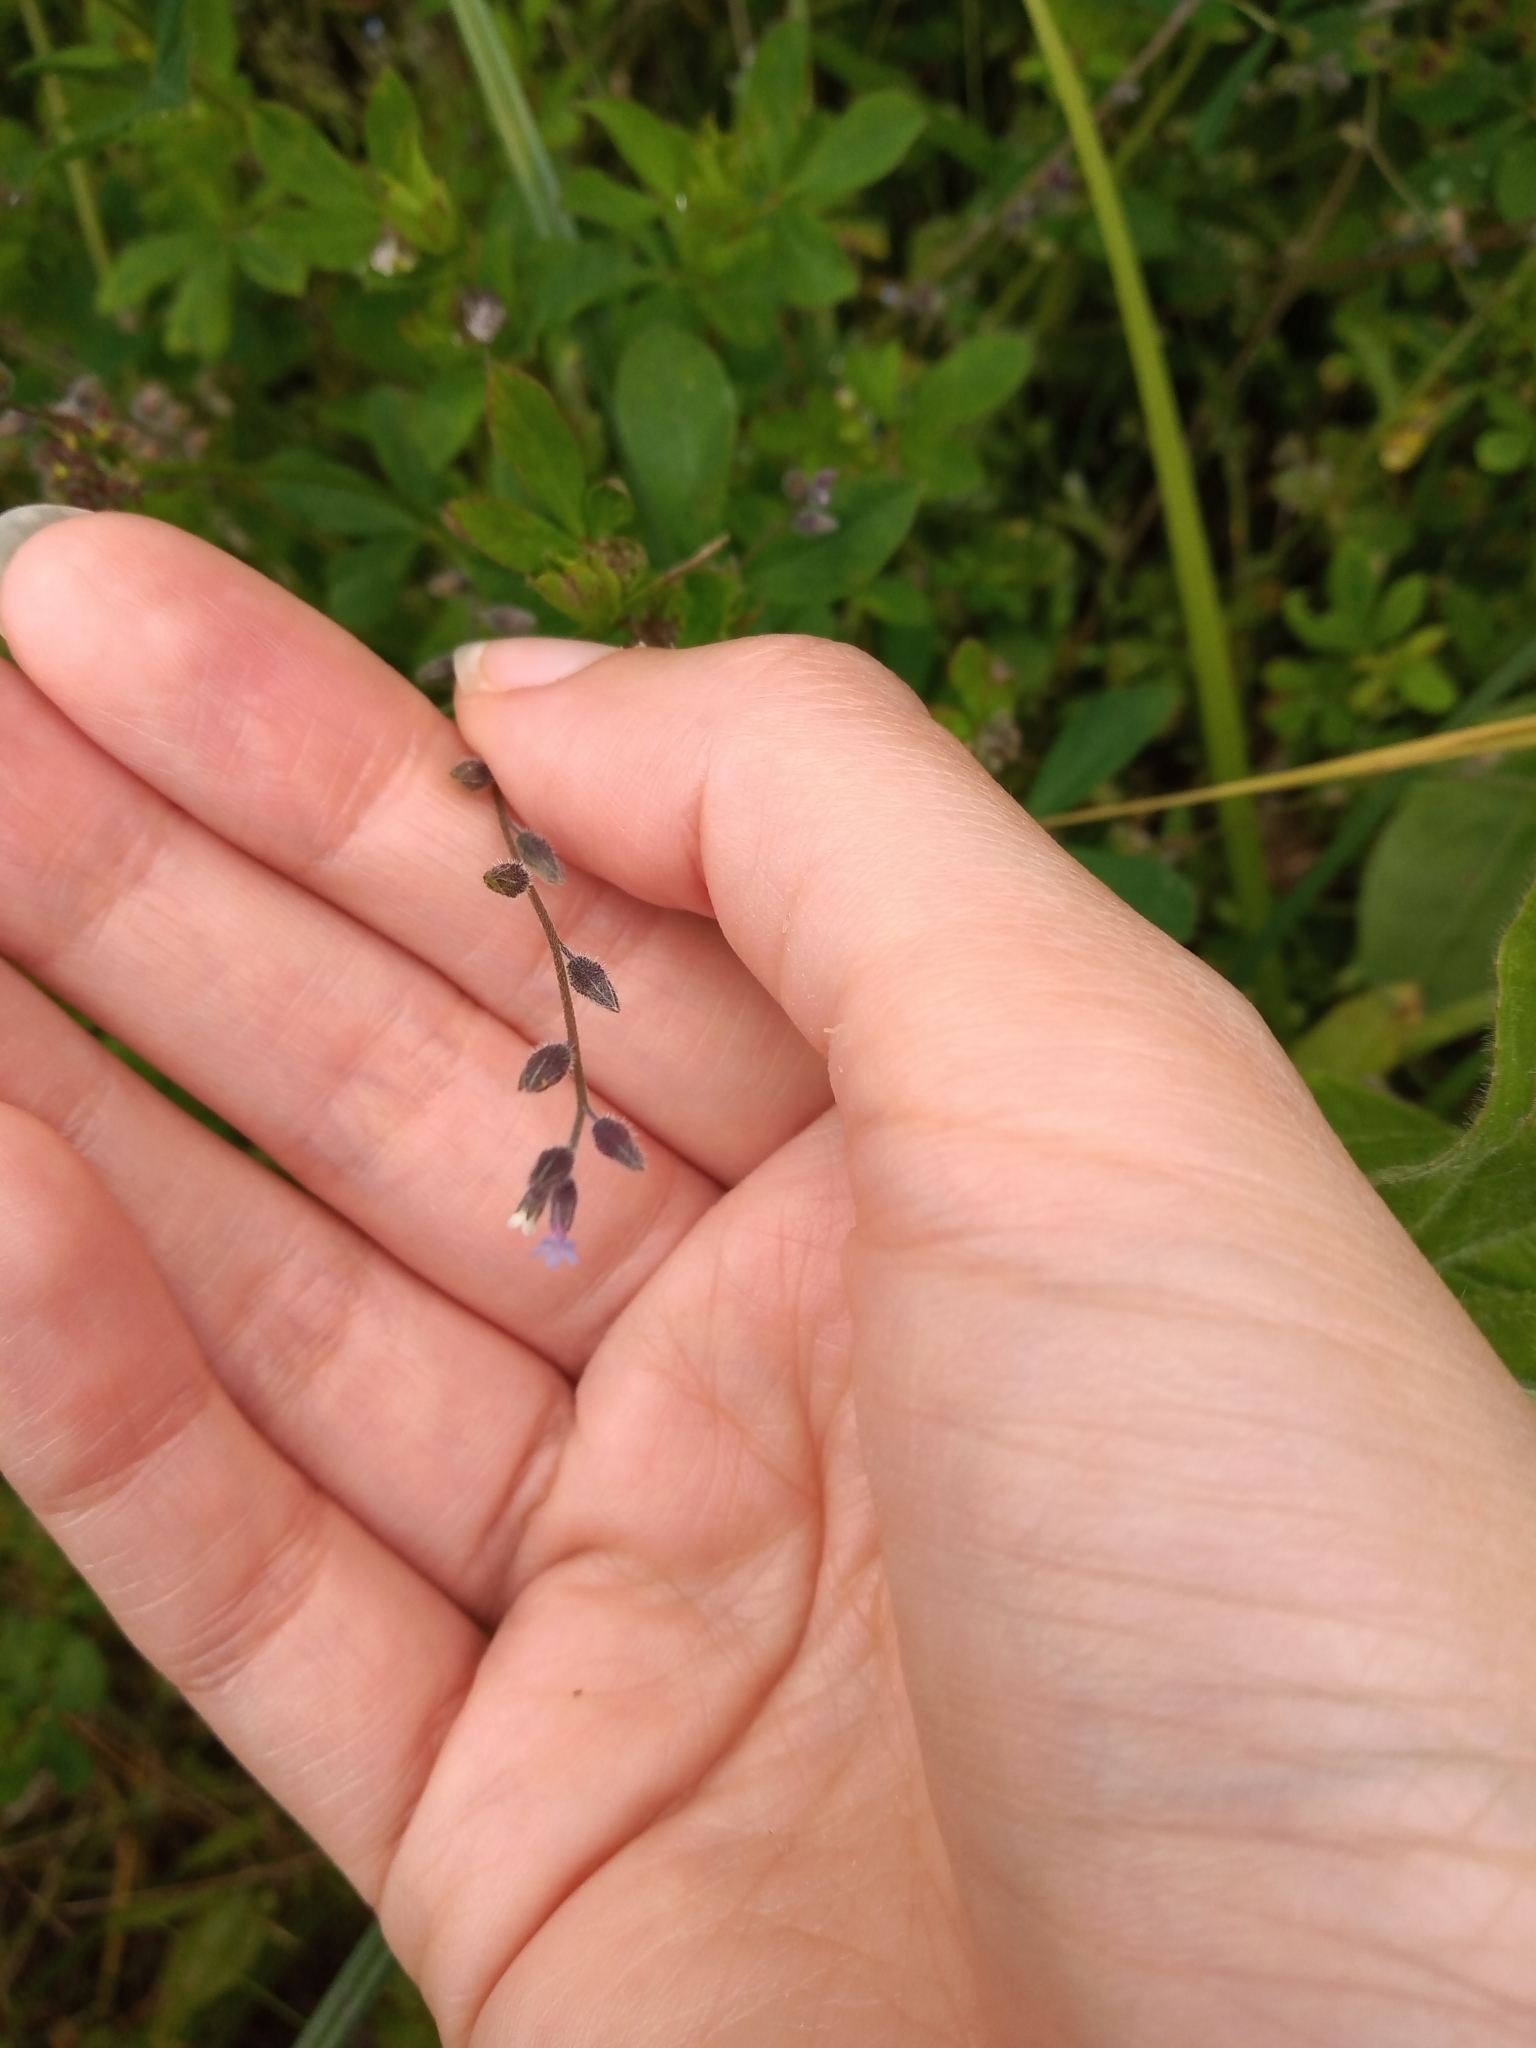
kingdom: Plantae
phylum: Tracheophyta
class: Magnoliopsida
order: Boraginales
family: Boraginaceae
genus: Myosotis
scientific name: Myosotis discolor
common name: Changing forget-me-not
